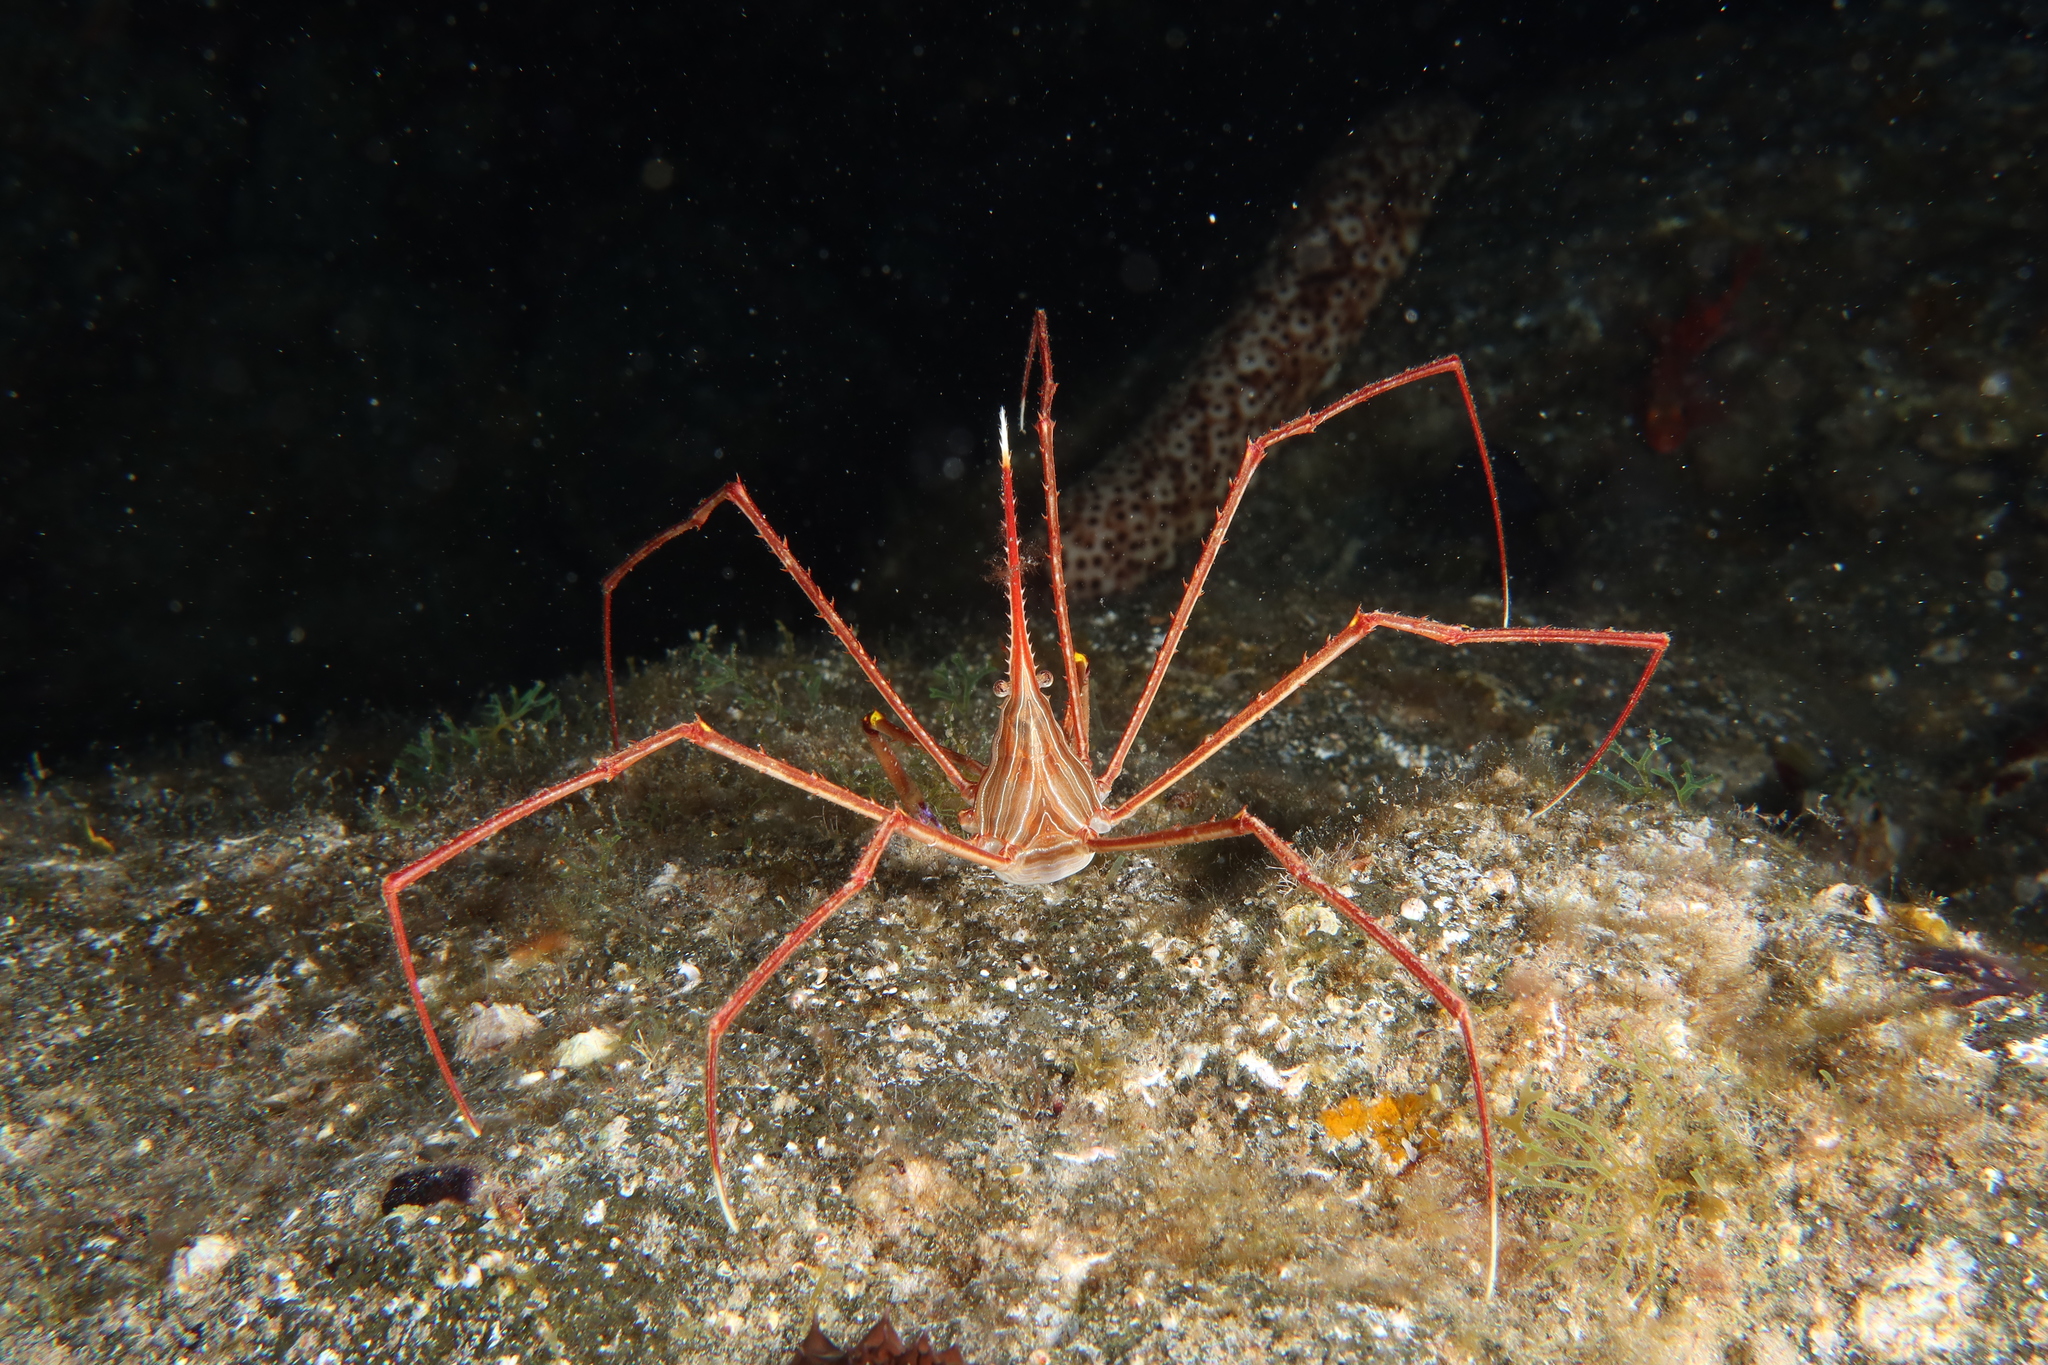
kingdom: Animalia
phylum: Arthropoda
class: Malacostraca
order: Decapoda
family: Inachoididae
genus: Stenorhynchus
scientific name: Stenorhynchus lanceolatus
